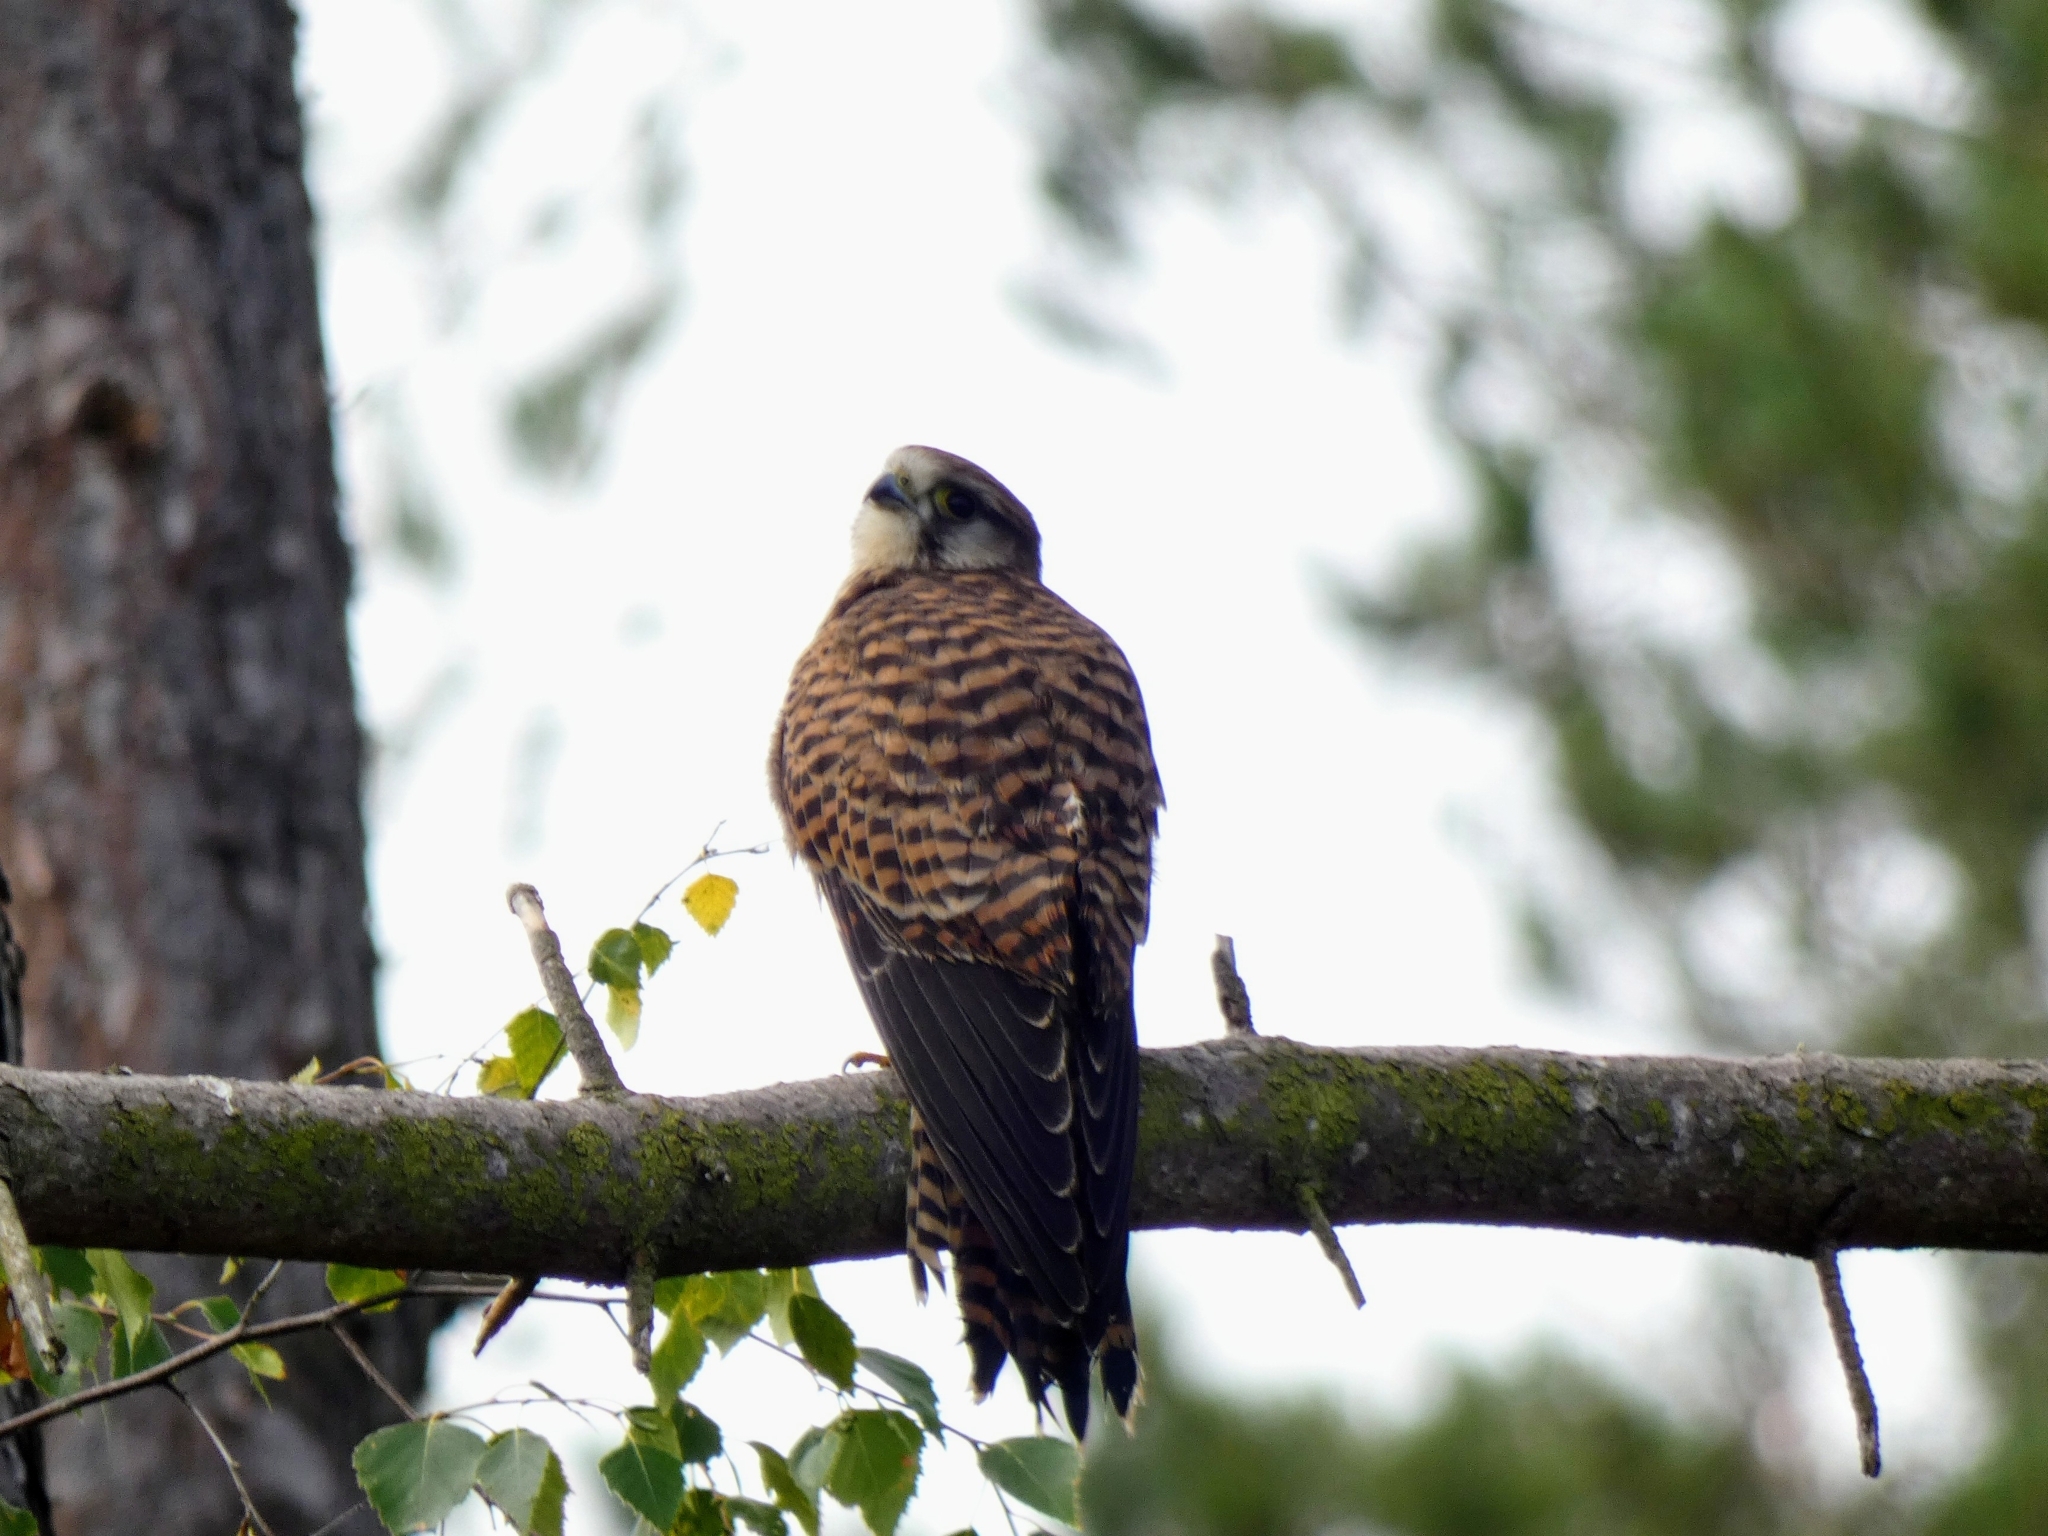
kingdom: Animalia
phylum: Chordata
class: Aves
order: Falconiformes
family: Falconidae
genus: Falco
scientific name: Falco tinnunculus
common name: Common kestrel
